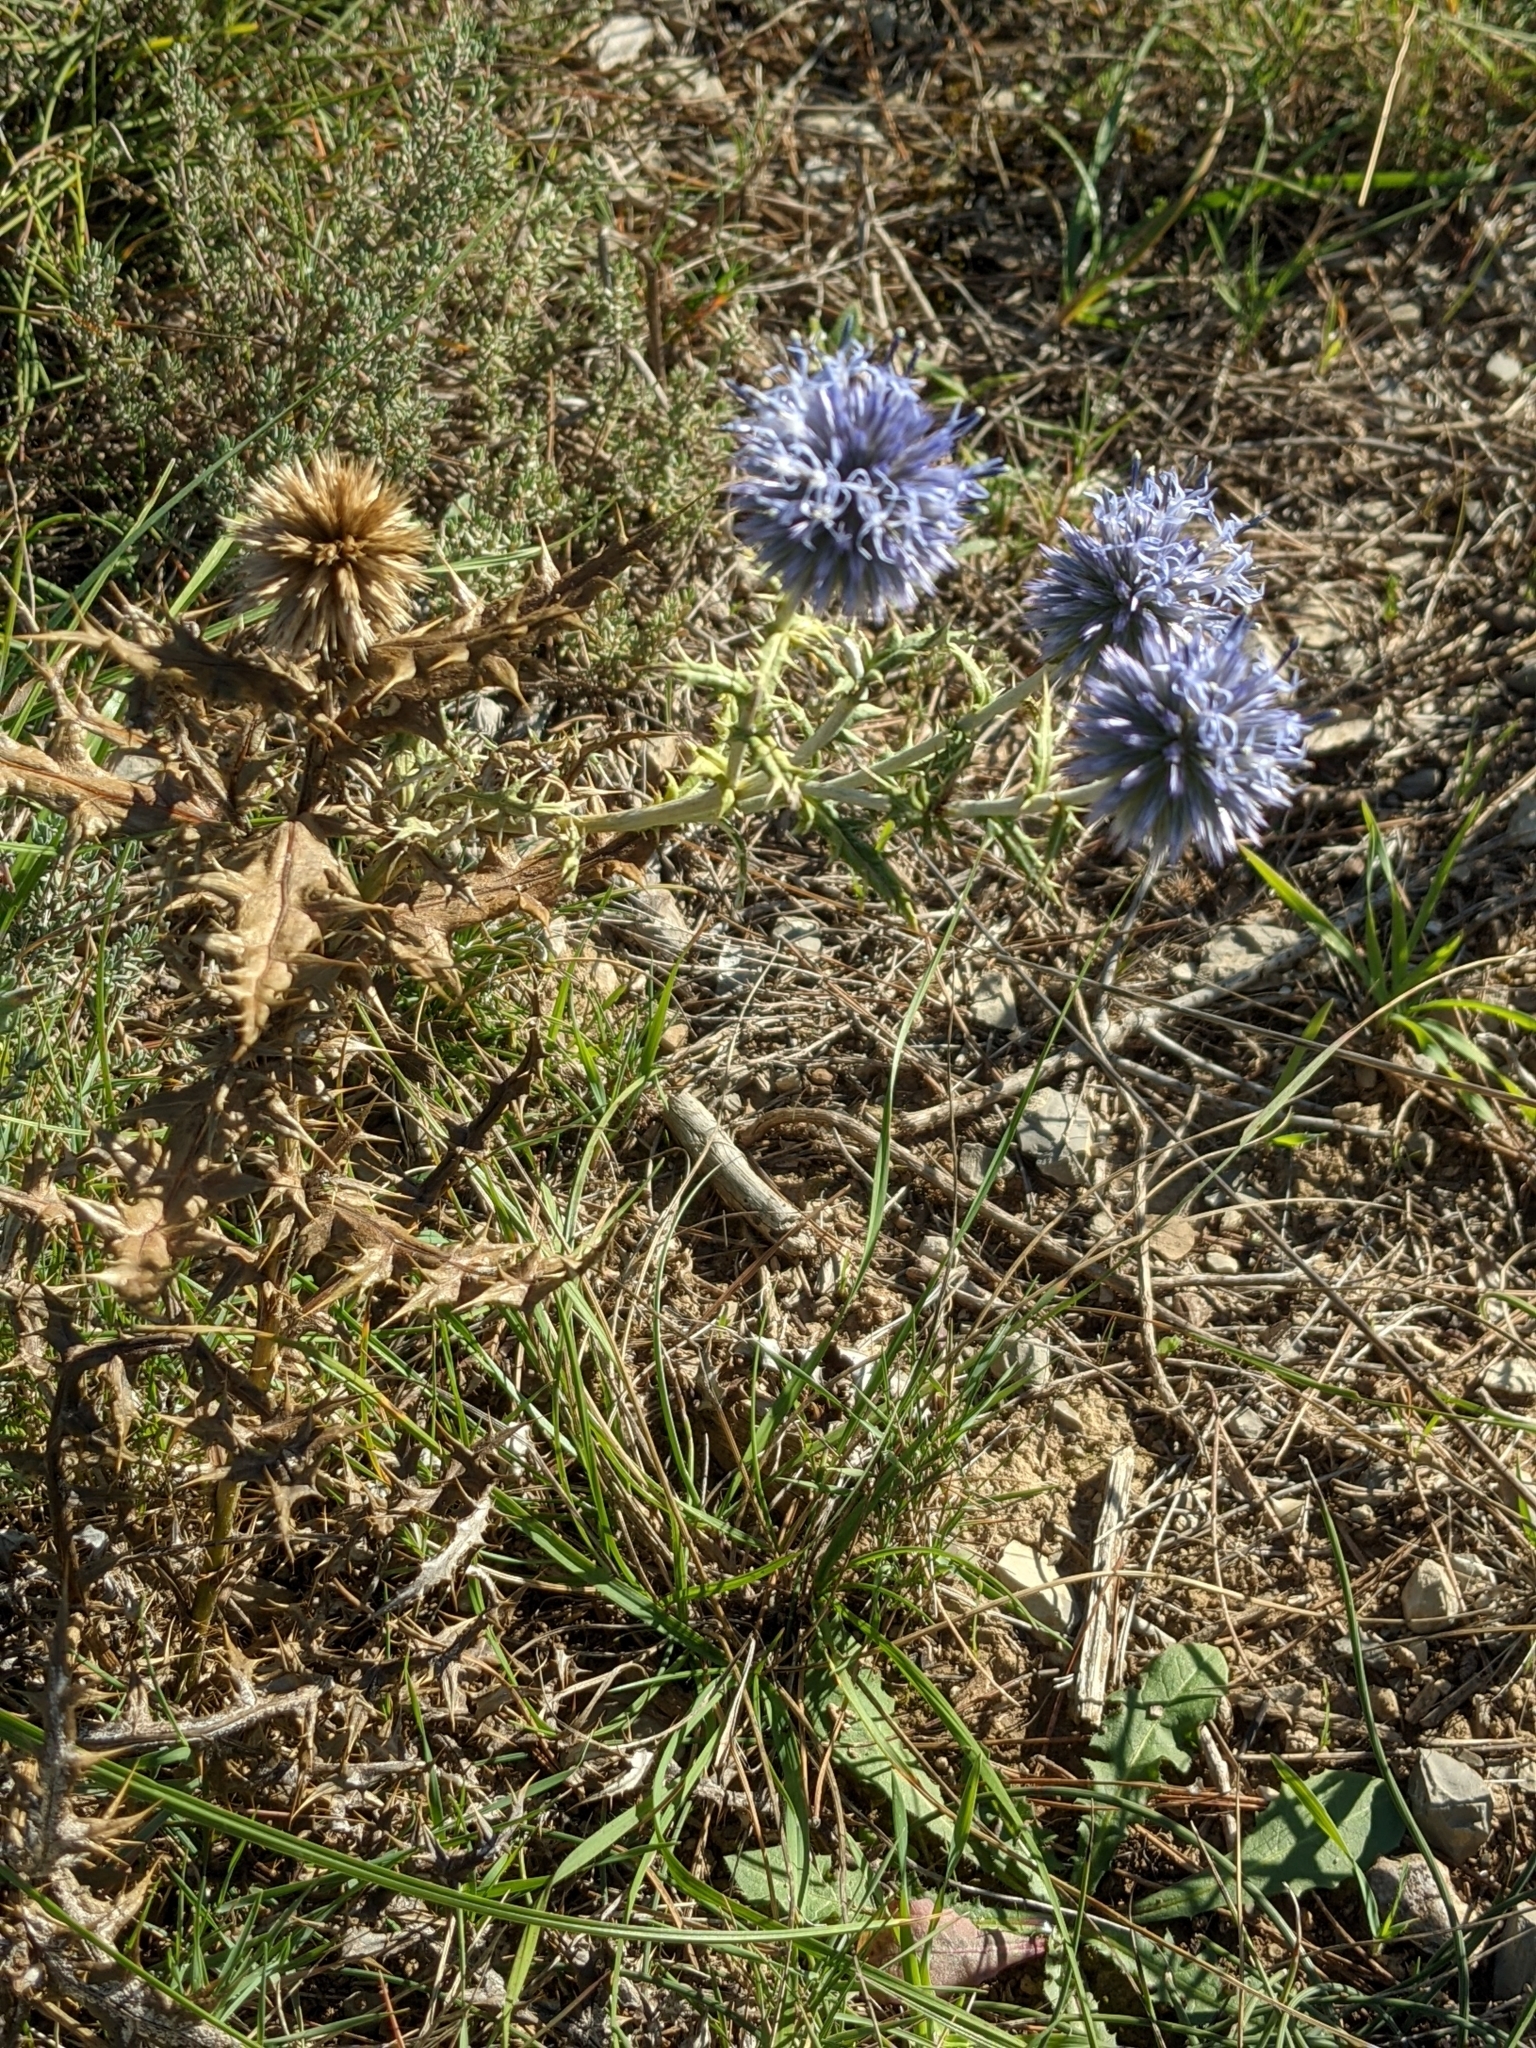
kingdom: Plantae
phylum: Tracheophyta
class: Magnoliopsida
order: Asterales
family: Asteraceae
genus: Echinops
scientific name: Echinops ritro
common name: Globe thistle
